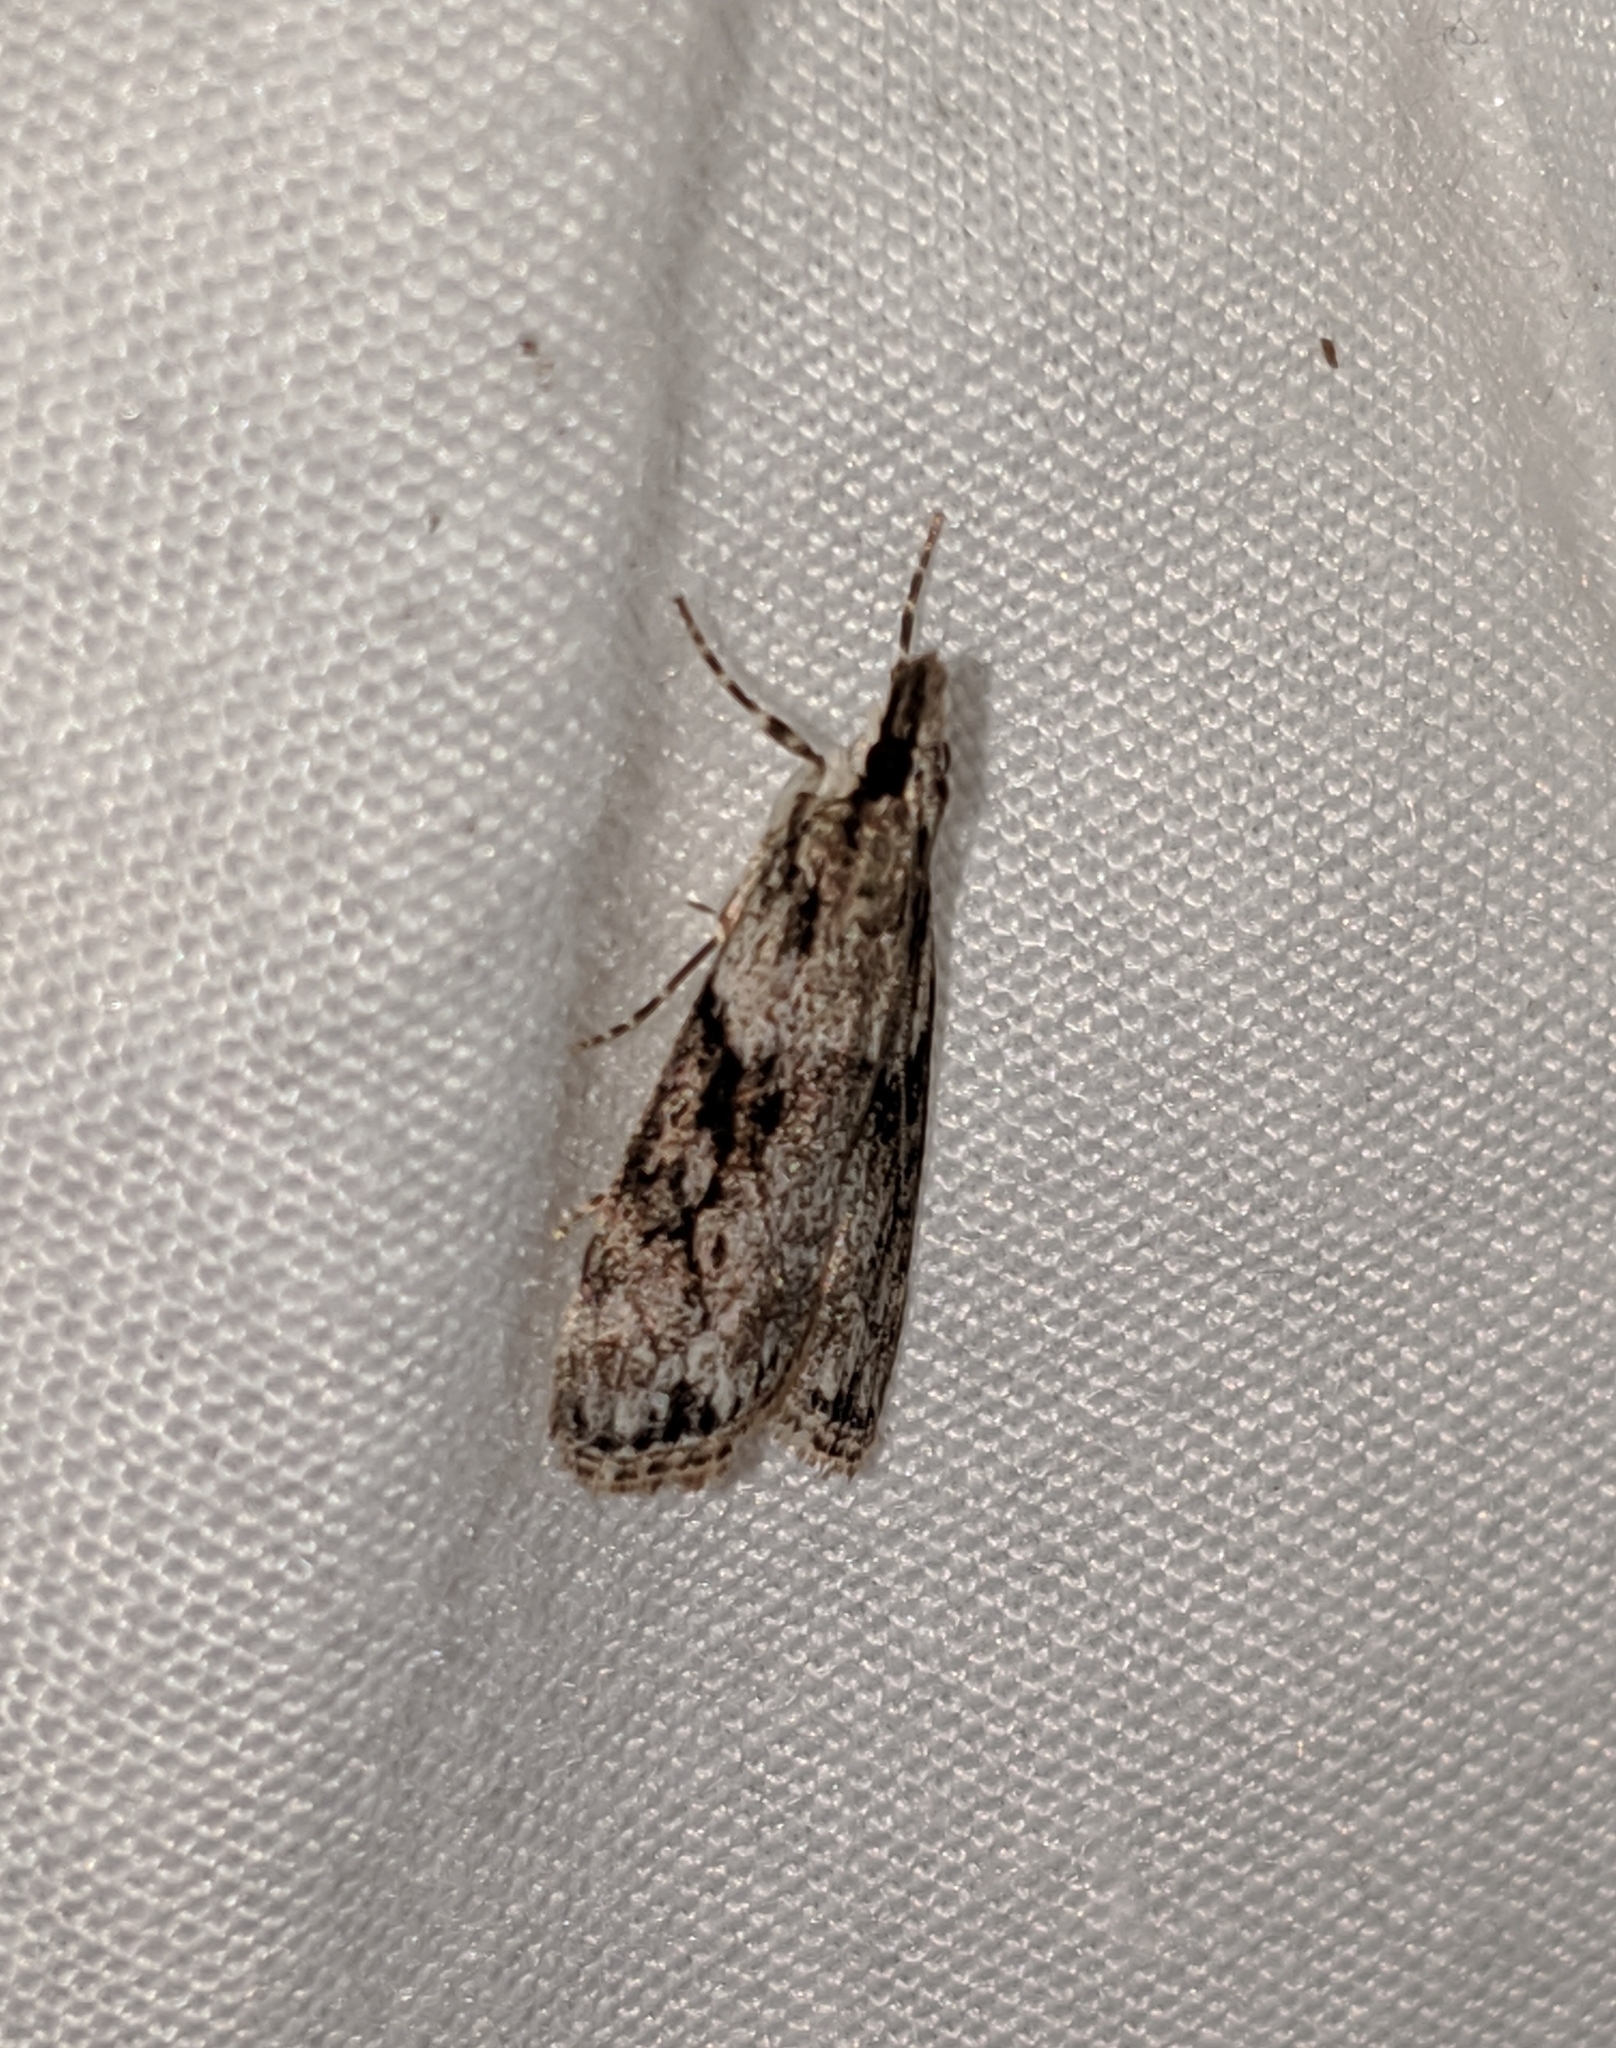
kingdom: Animalia
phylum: Arthropoda
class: Insecta
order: Lepidoptera
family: Crambidae
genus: Scoparia
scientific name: Scoparia biplagialis
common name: Double-striped scoparia moth
